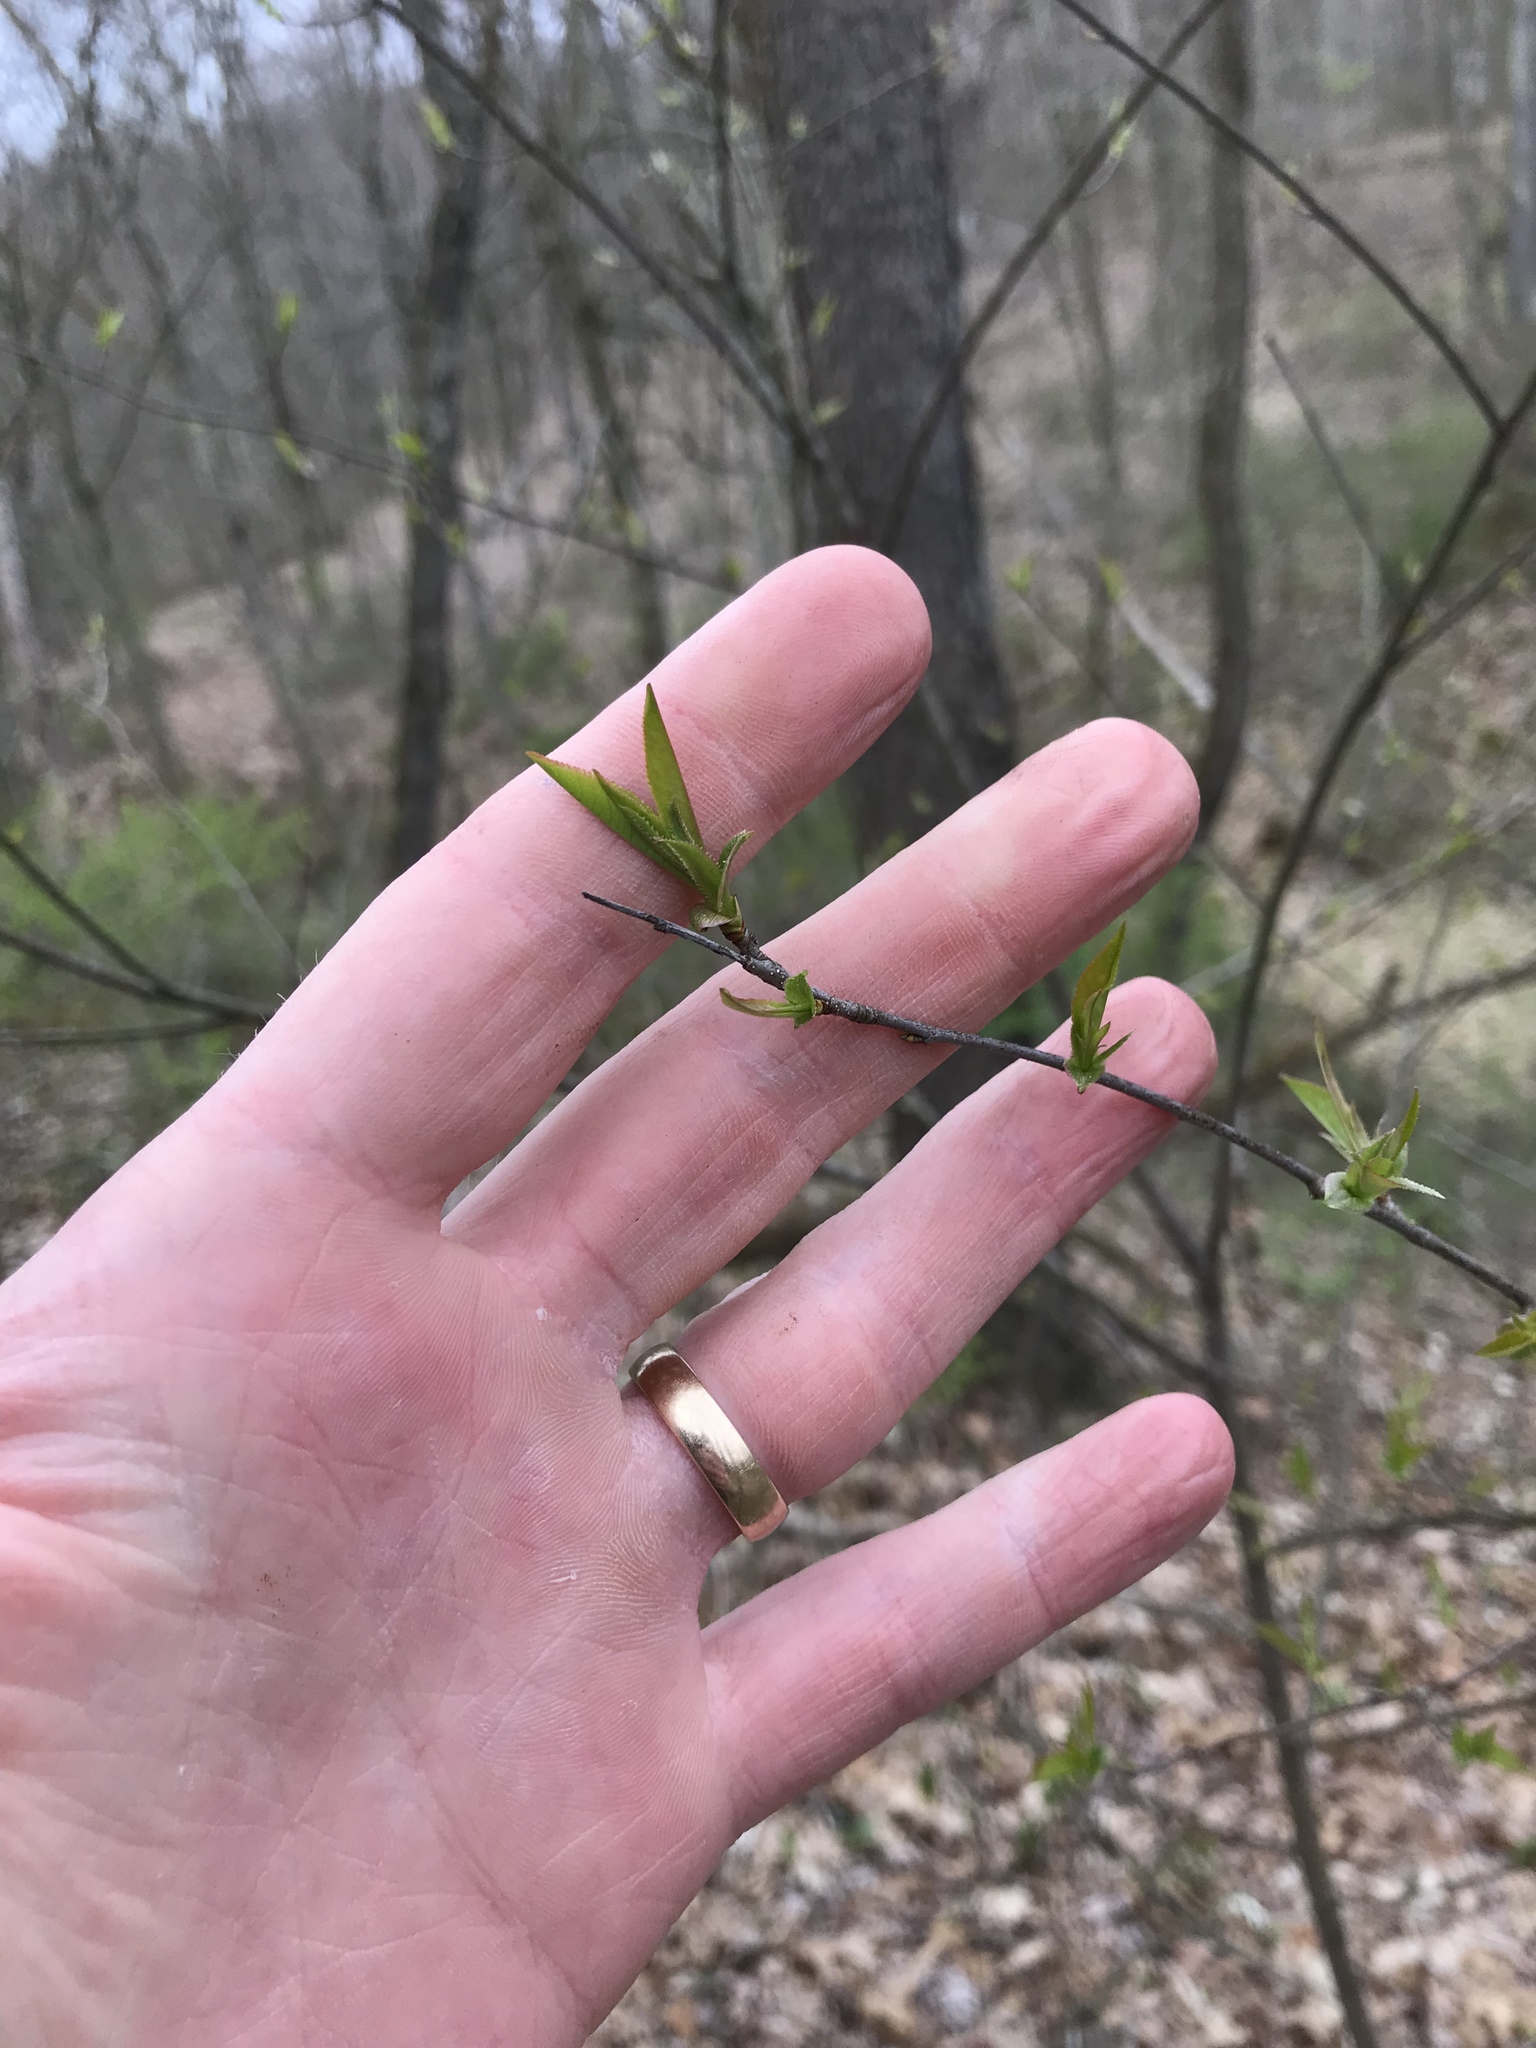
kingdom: Plantae
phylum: Tracheophyta
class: Magnoliopsida
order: Rosales
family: Rosaceae
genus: Prunus
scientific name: Prunus serotina
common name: Black cherry
